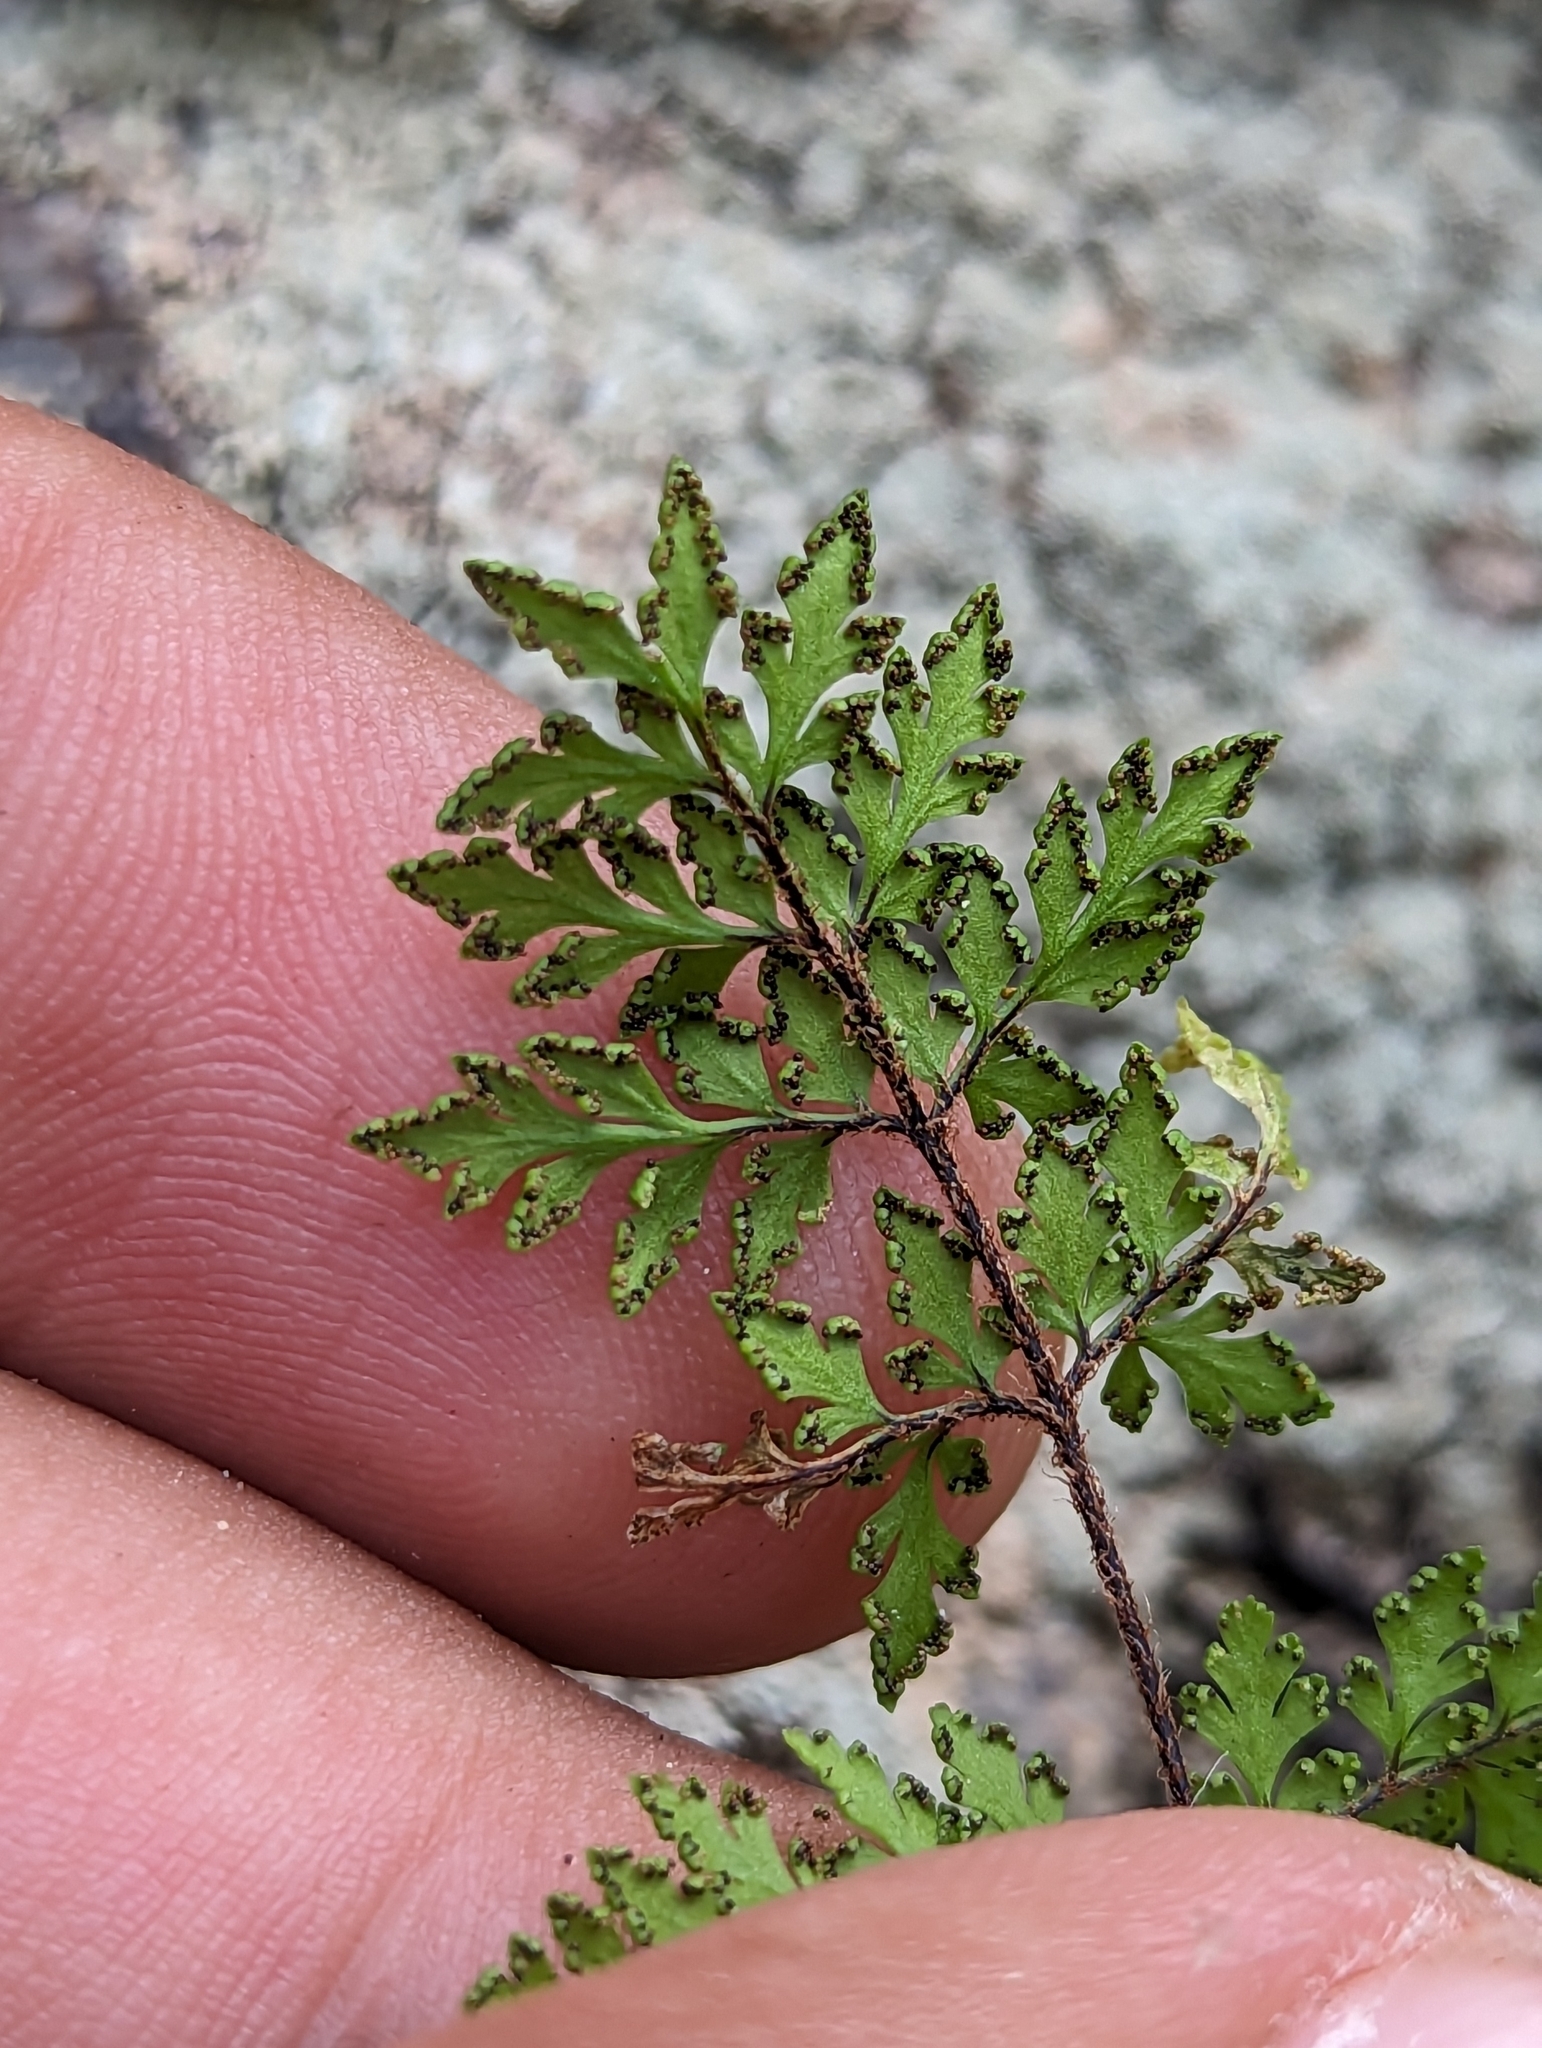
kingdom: Plantae
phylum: Tracheophyta
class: Polypodiopsida
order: Polypodiales
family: Pteridaceae
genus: Myriopteris
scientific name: Myriopteris peninsularis
